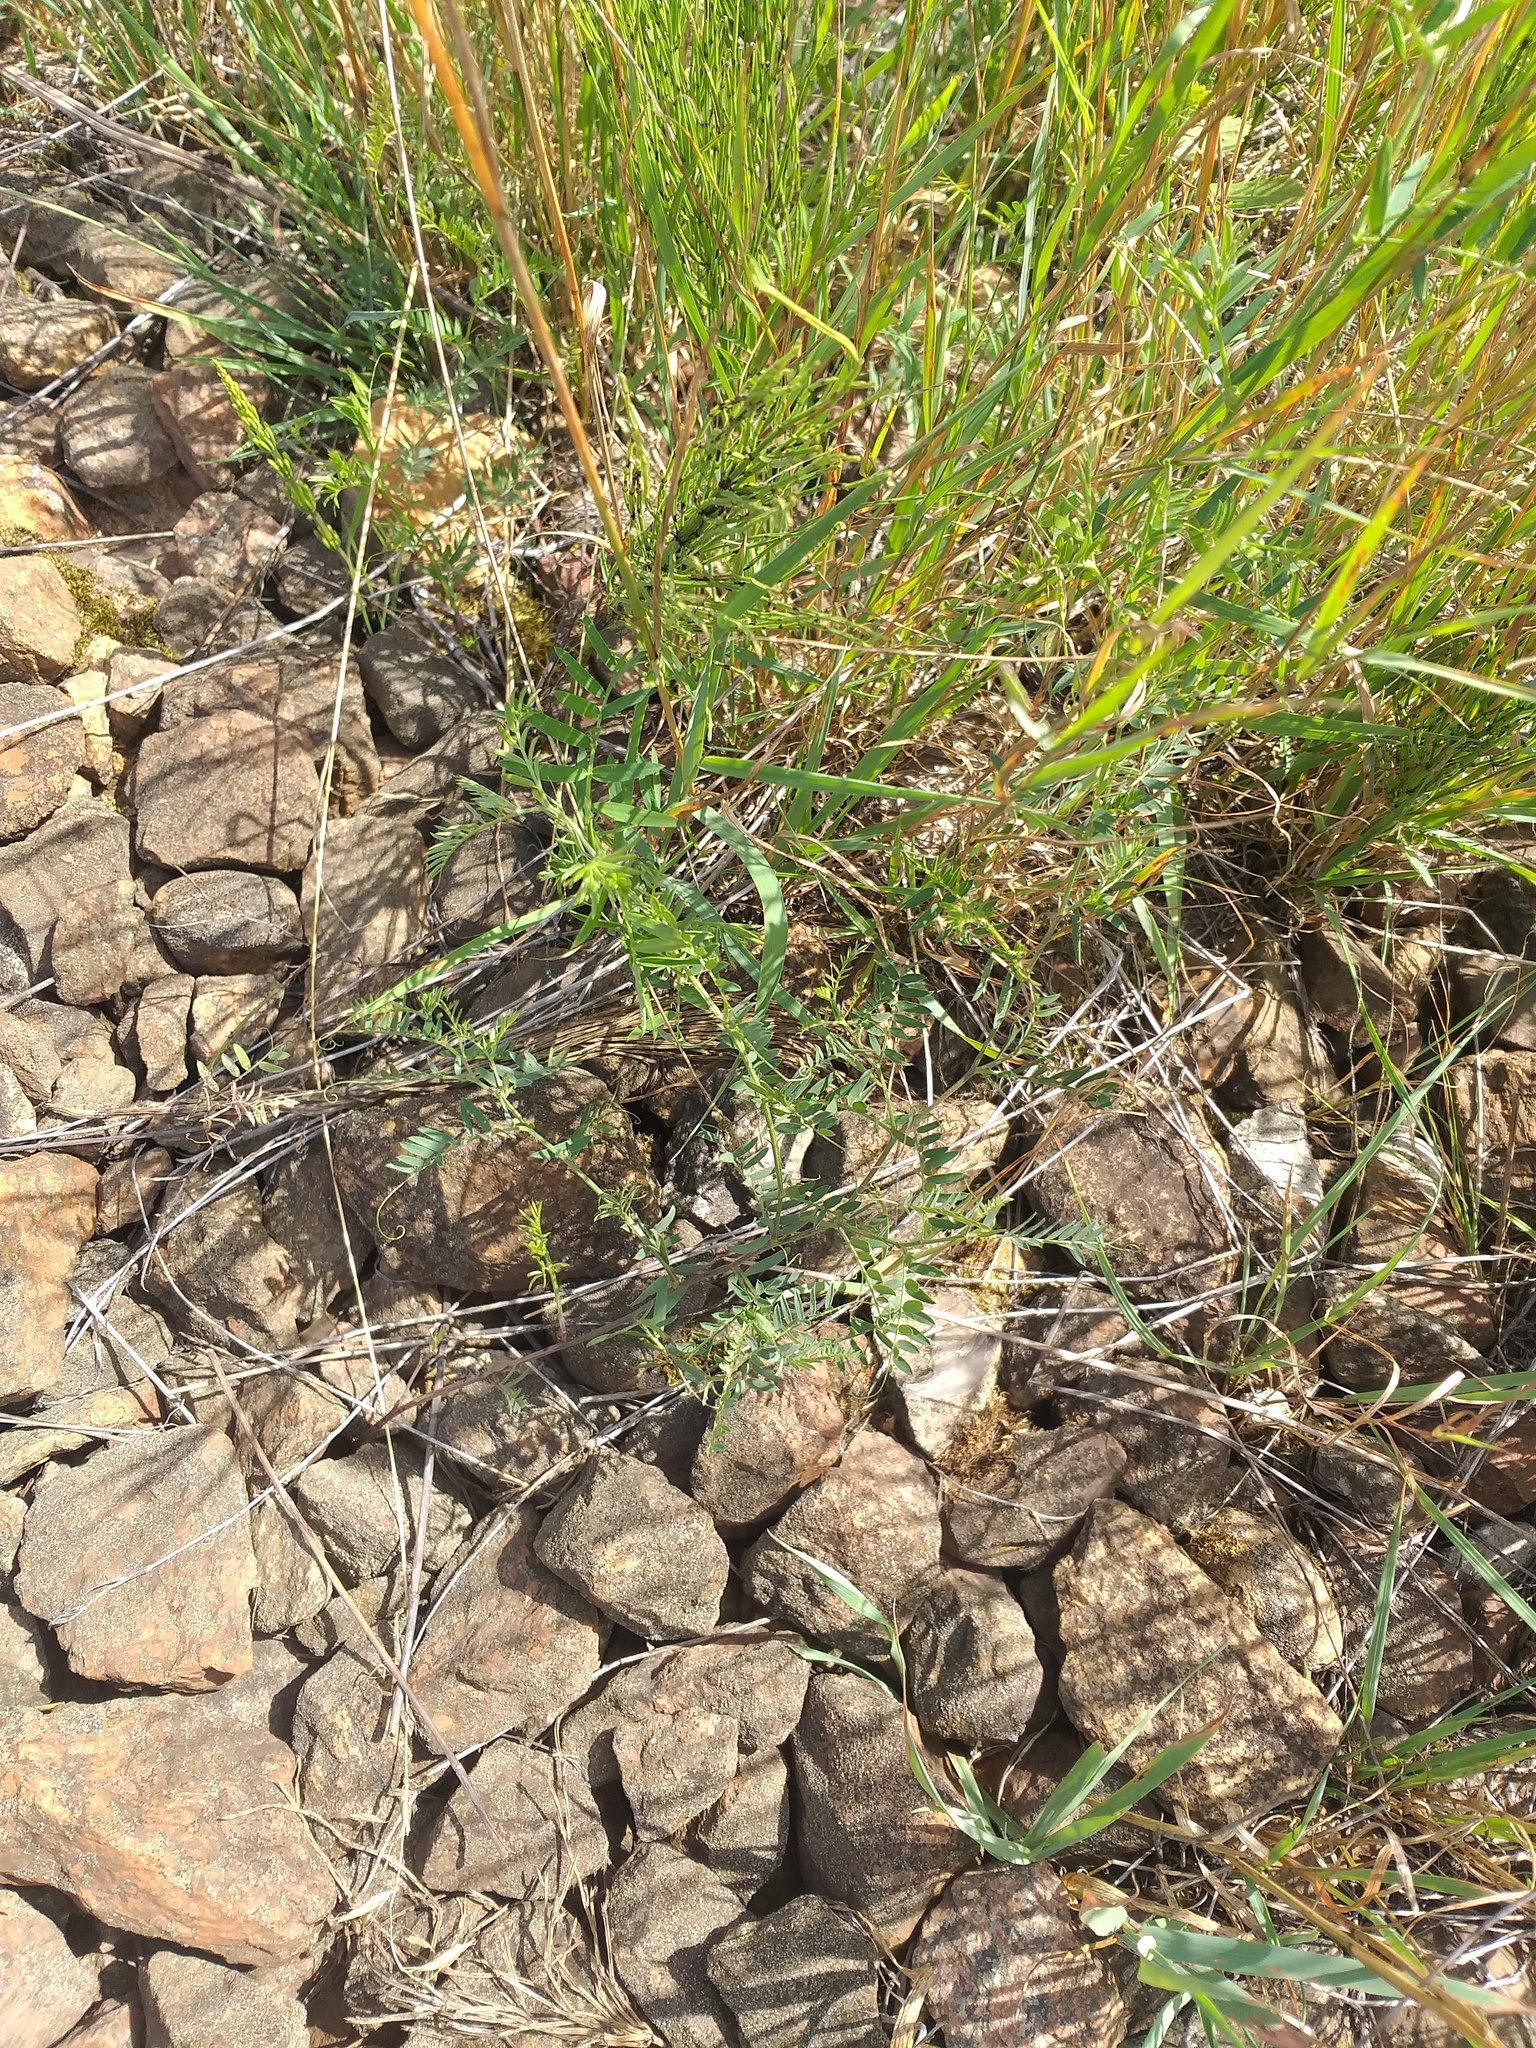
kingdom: Plantae
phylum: Tracheophyta
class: Magnoliopsida
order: Fabales
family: Fabaceae
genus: Vicia
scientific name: Vicia cracca
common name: Bird vetch
